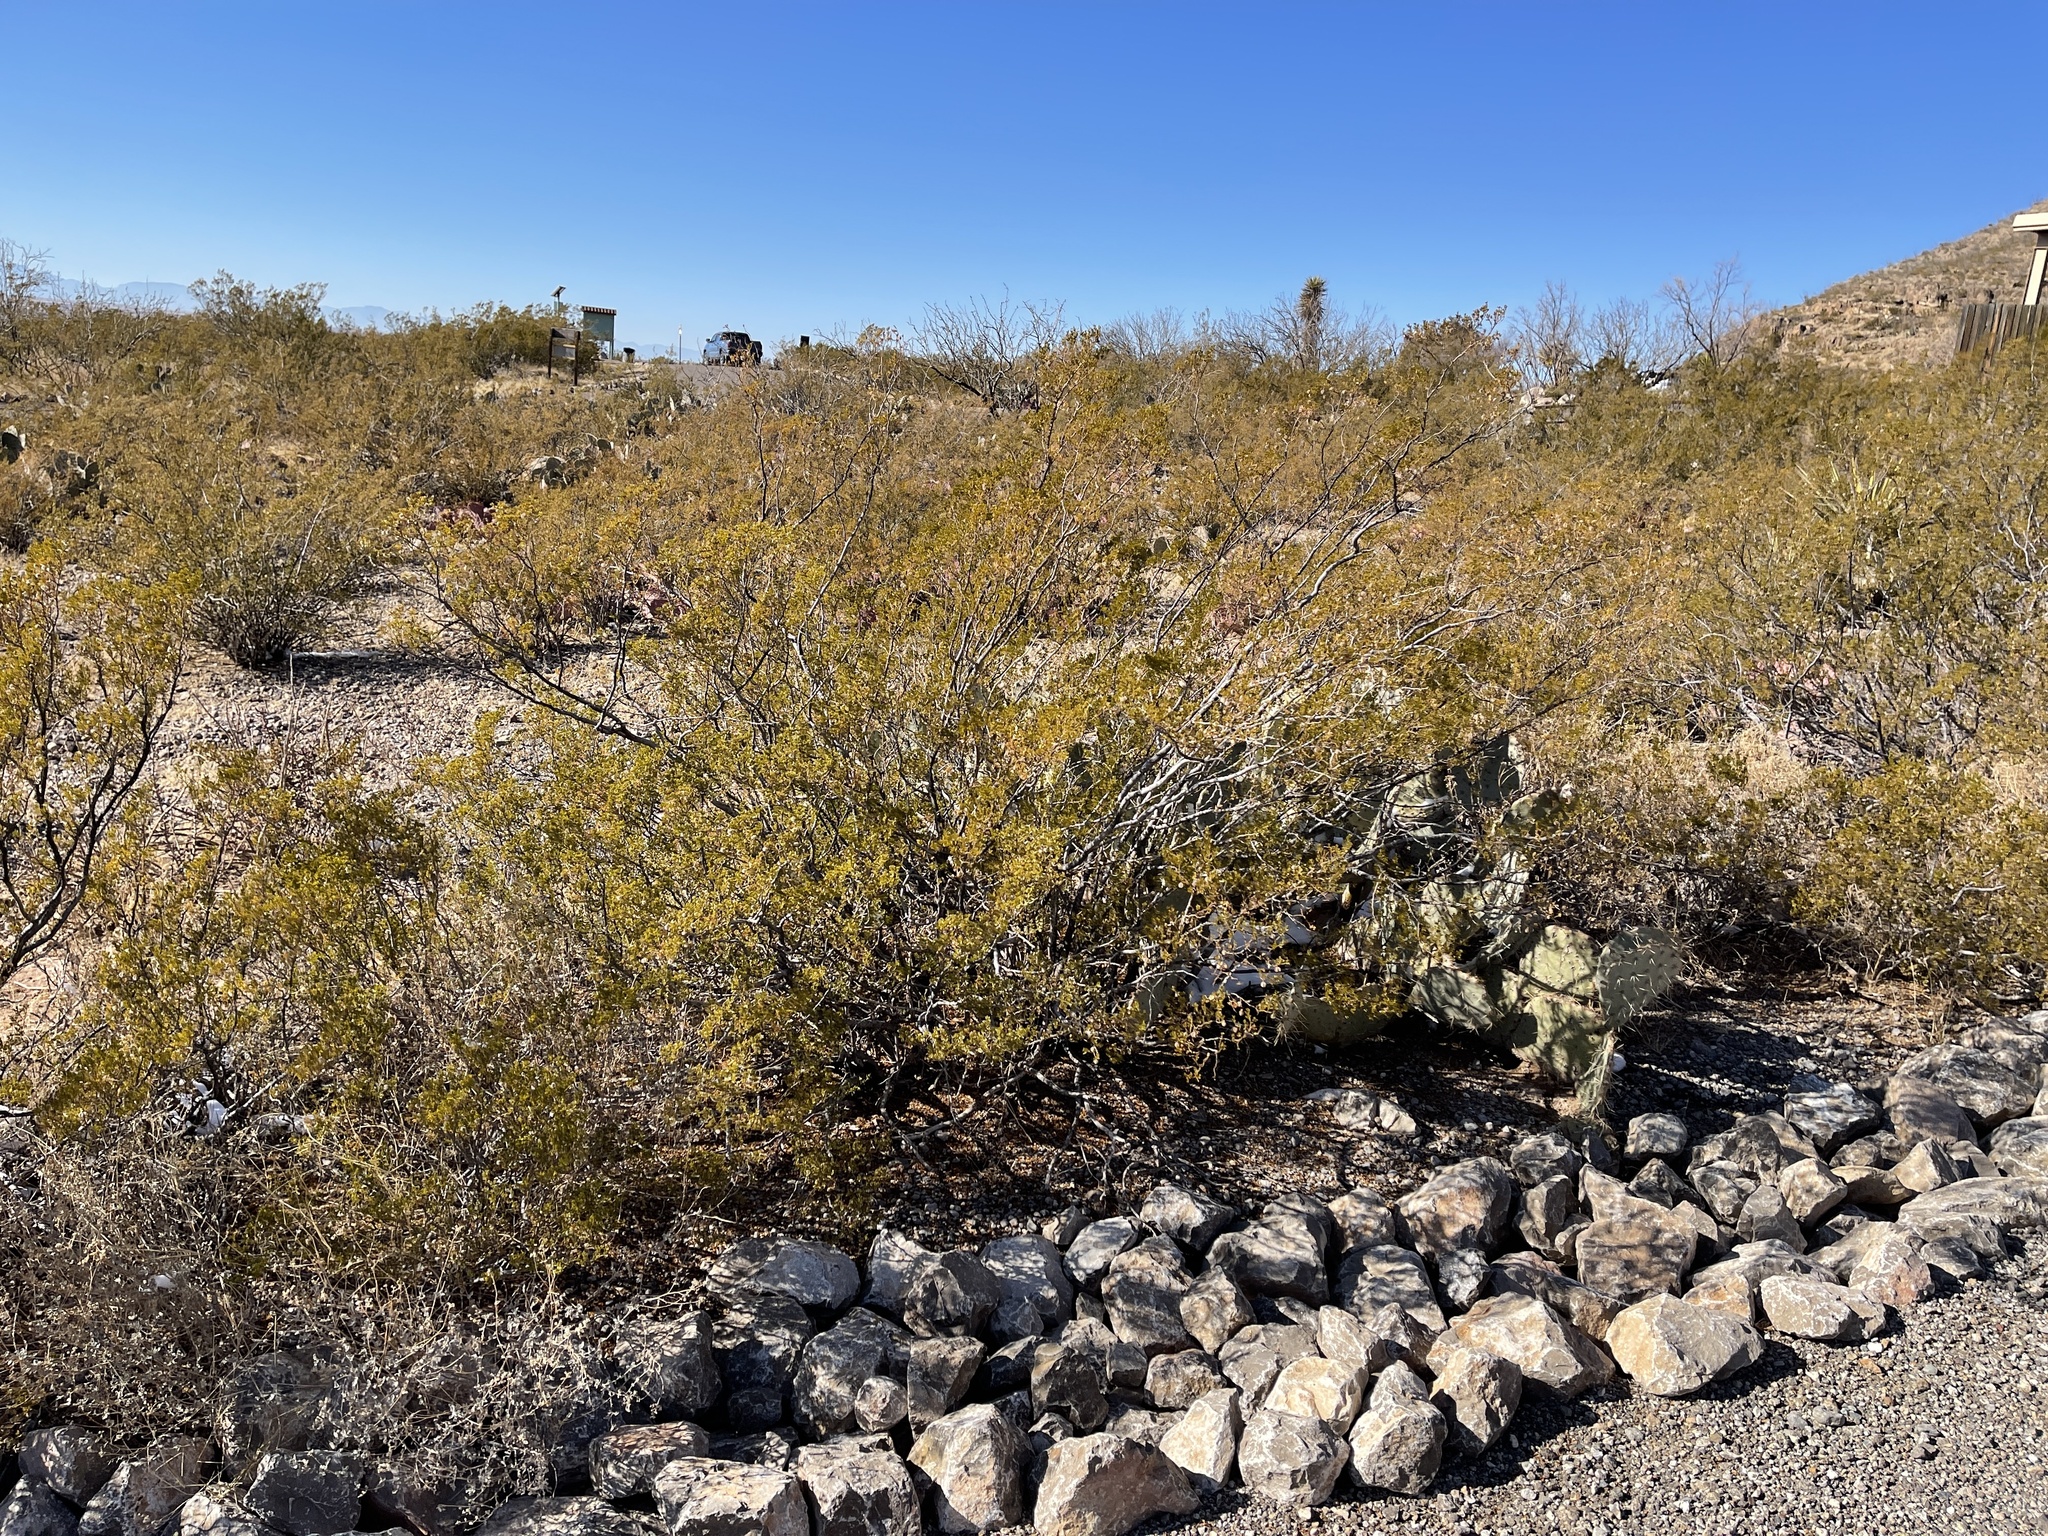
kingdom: Plantae
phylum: Tracheophyta
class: Magnoliopsida
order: Zygophyllales
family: Zygophyllaceae
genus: Larrea
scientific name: Larrea tridentata
